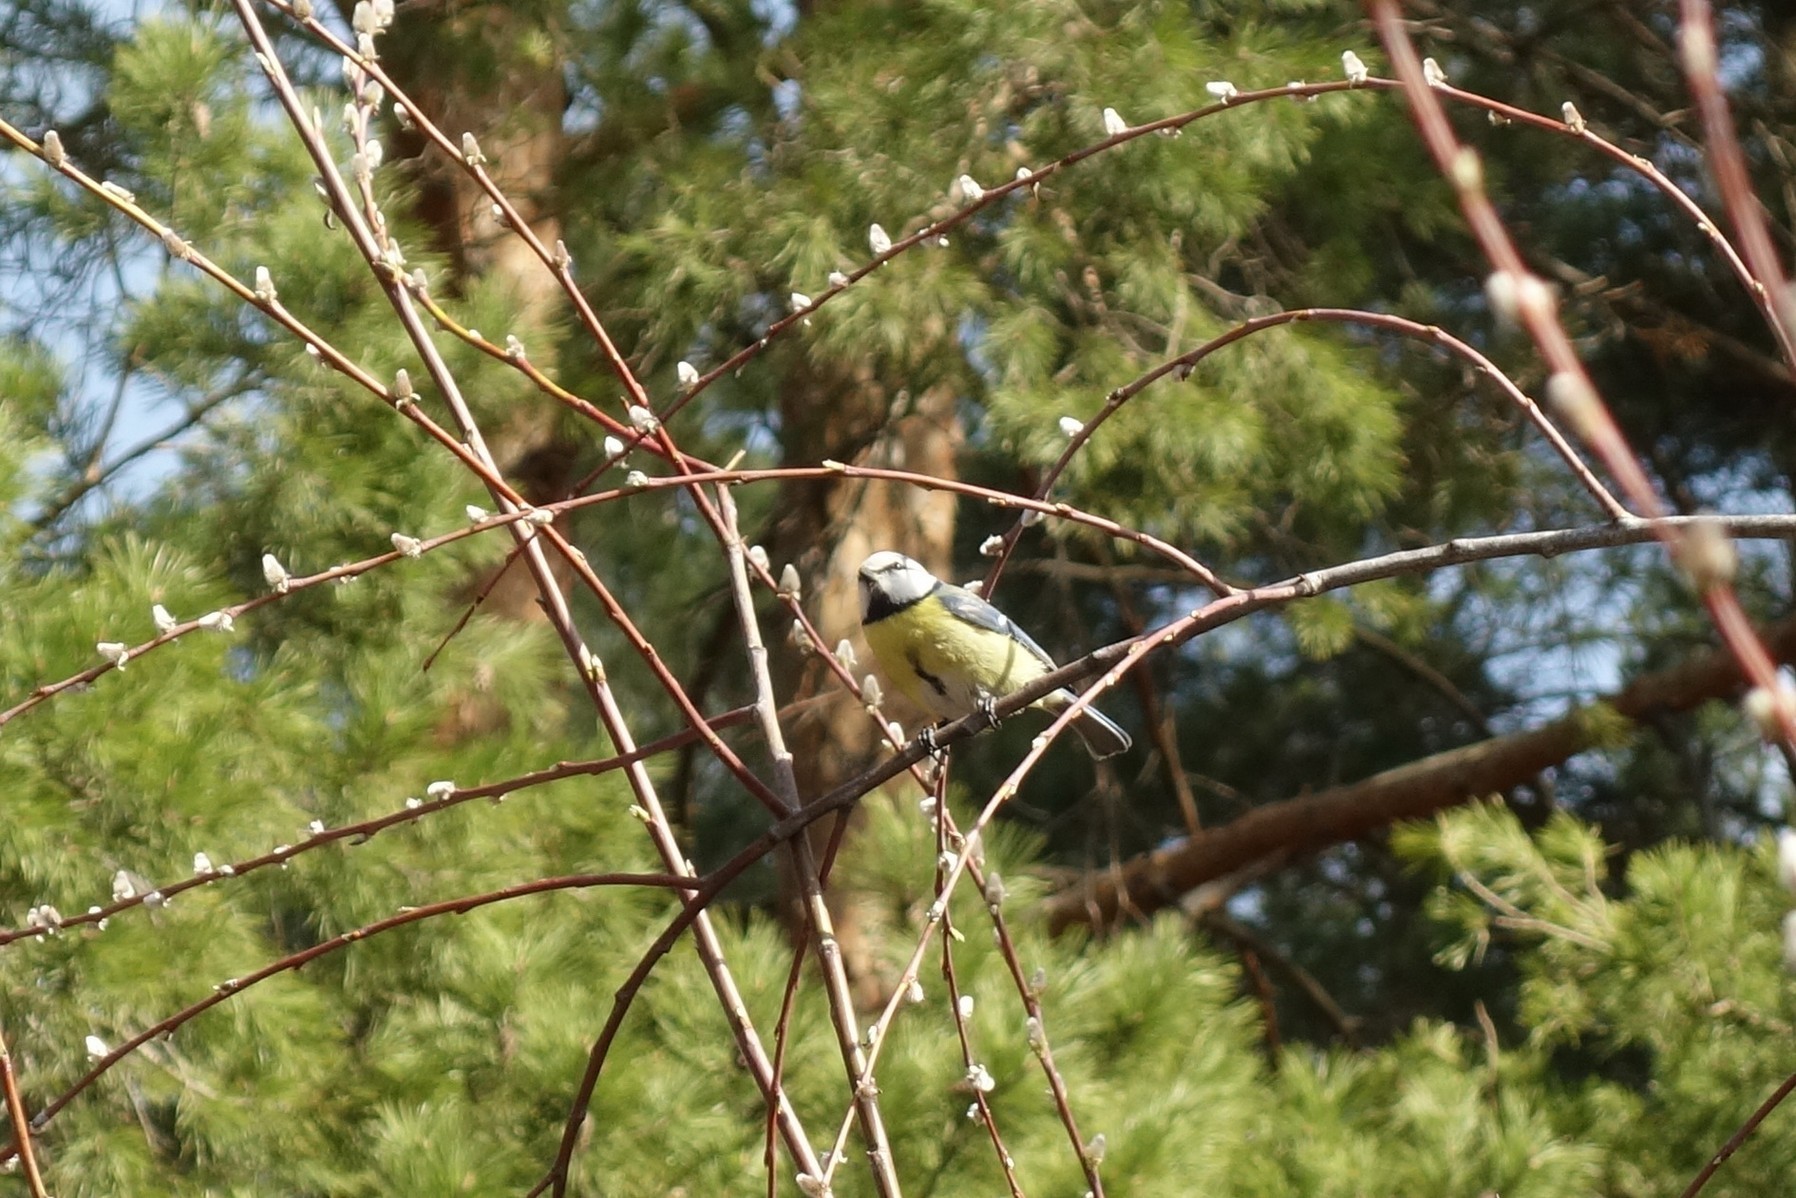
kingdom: Animalia
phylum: Chordata
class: Aves
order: Passeriformes
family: Paridae
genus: Cyanistes
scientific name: Cyanistes caeruleus
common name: Eurasian blue tit
